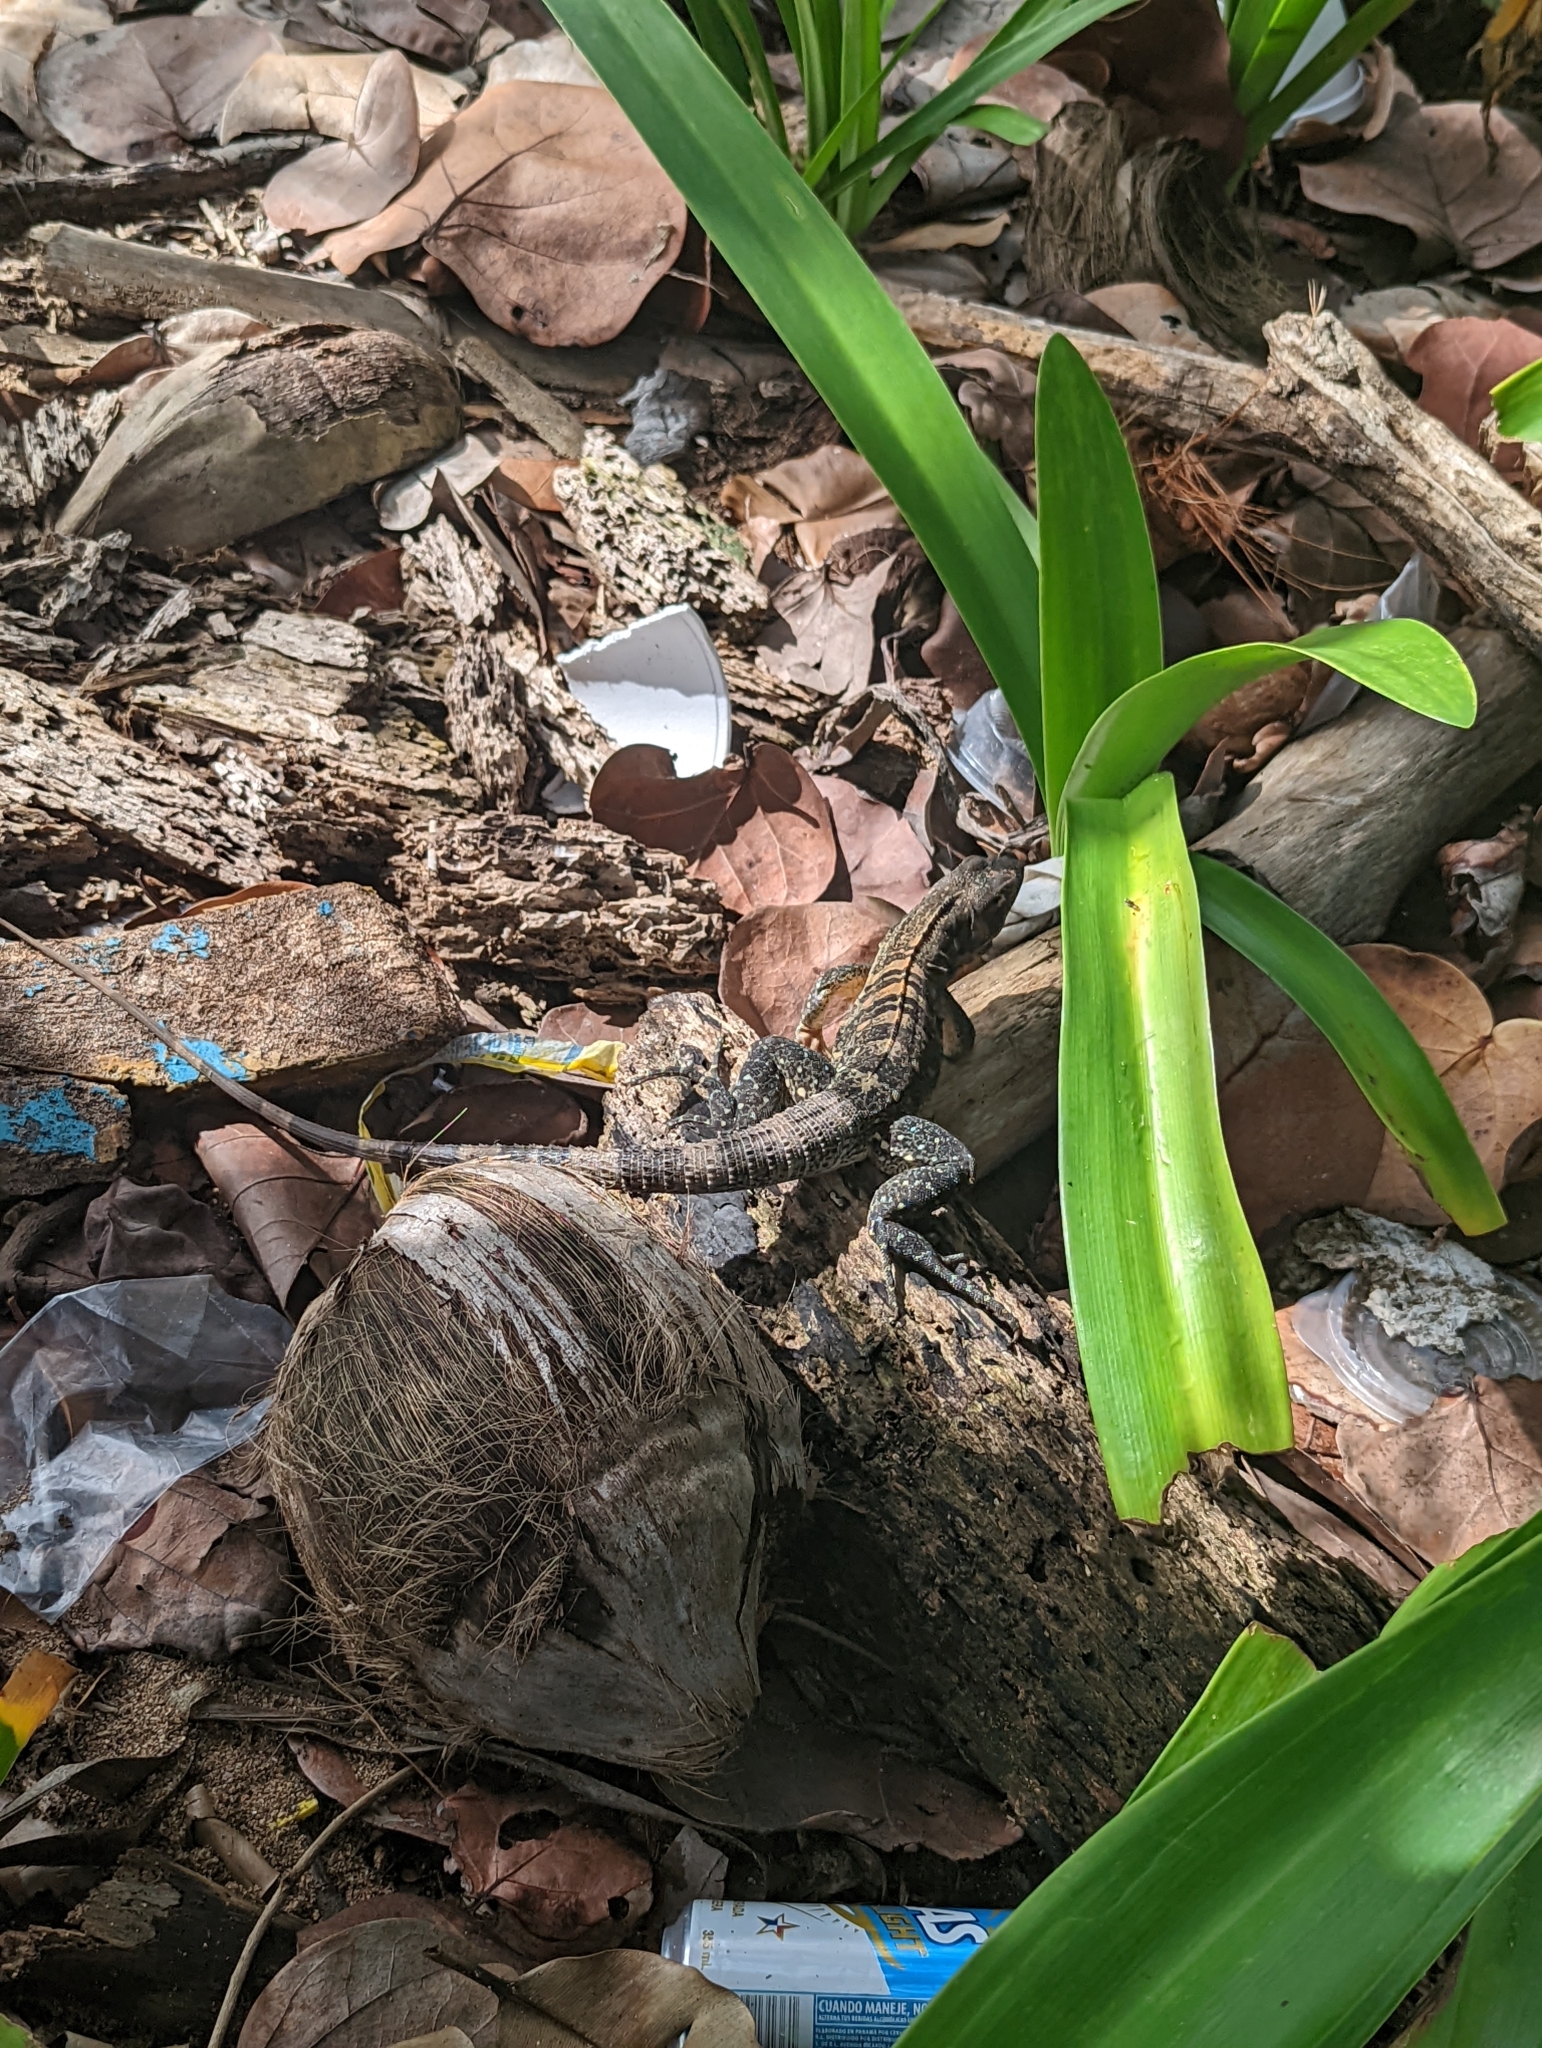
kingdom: Animalia
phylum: Chordata
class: Squamata
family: Iguanidae
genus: Ctenosaura
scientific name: Ctenosaura similis
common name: Black spiny-tailed iguana
